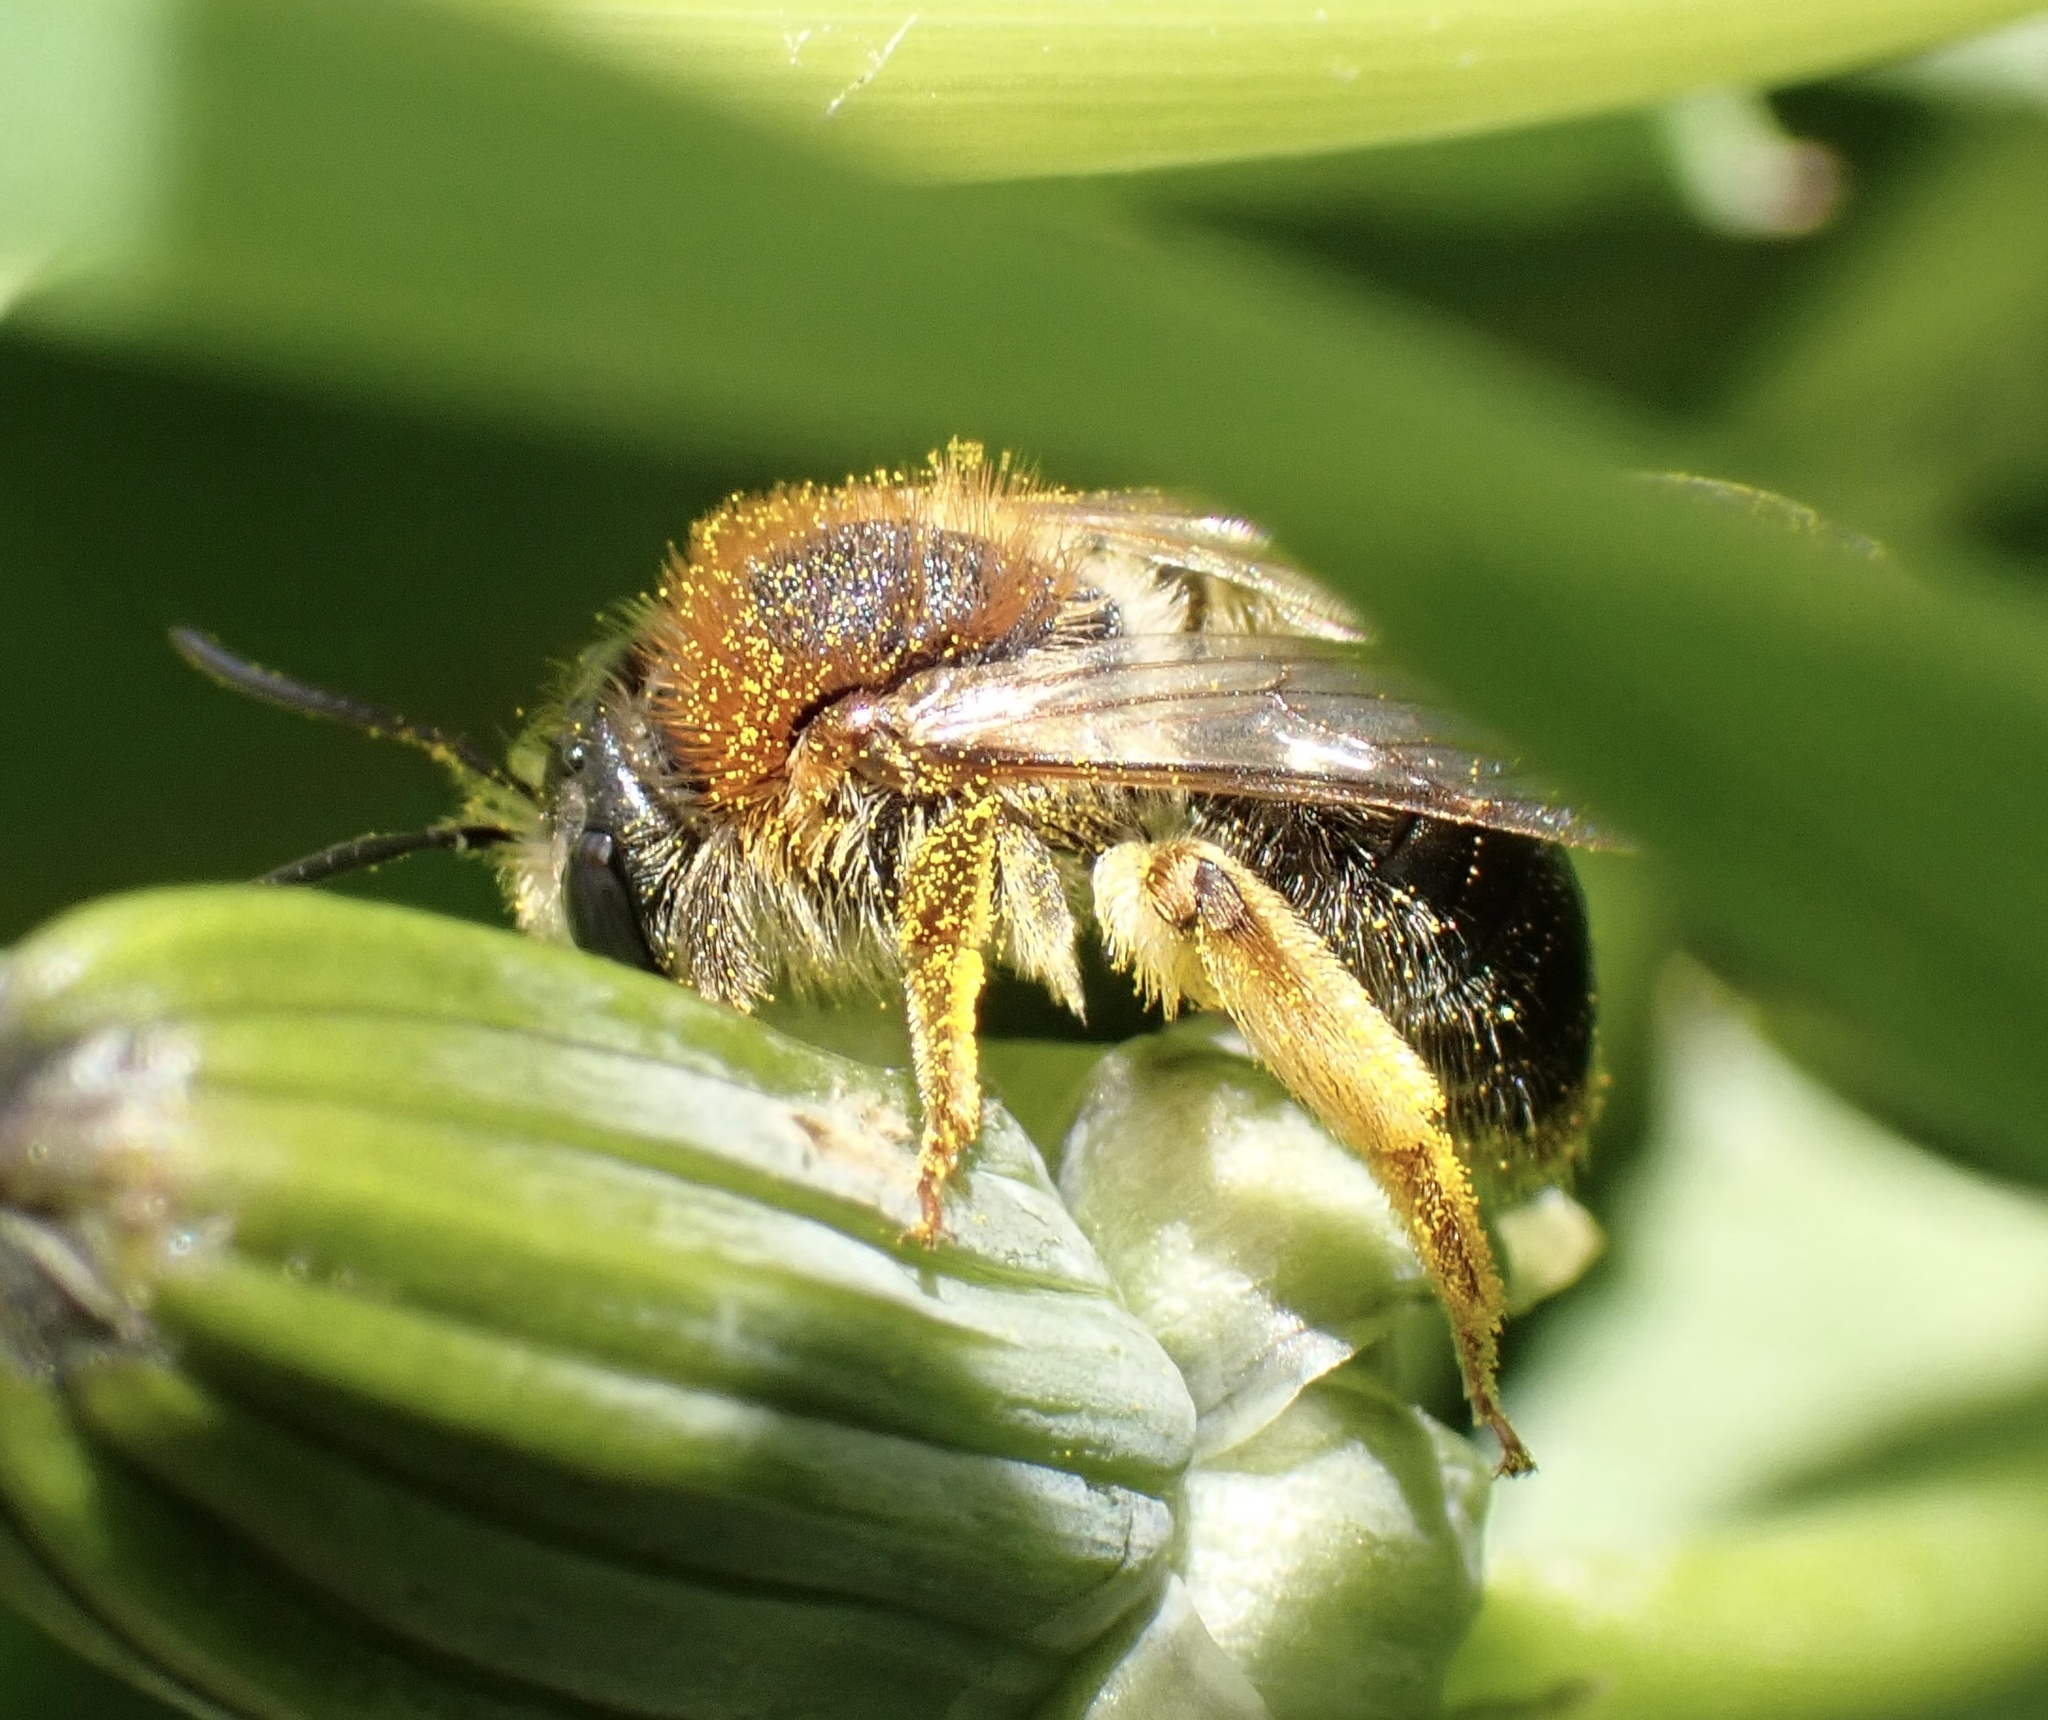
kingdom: Animalia
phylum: Arthropoda
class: Insecta
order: Hymenoptera
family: Andrenidae
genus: Andrena
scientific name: Andrena haemorrhoa
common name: Early mining bee
